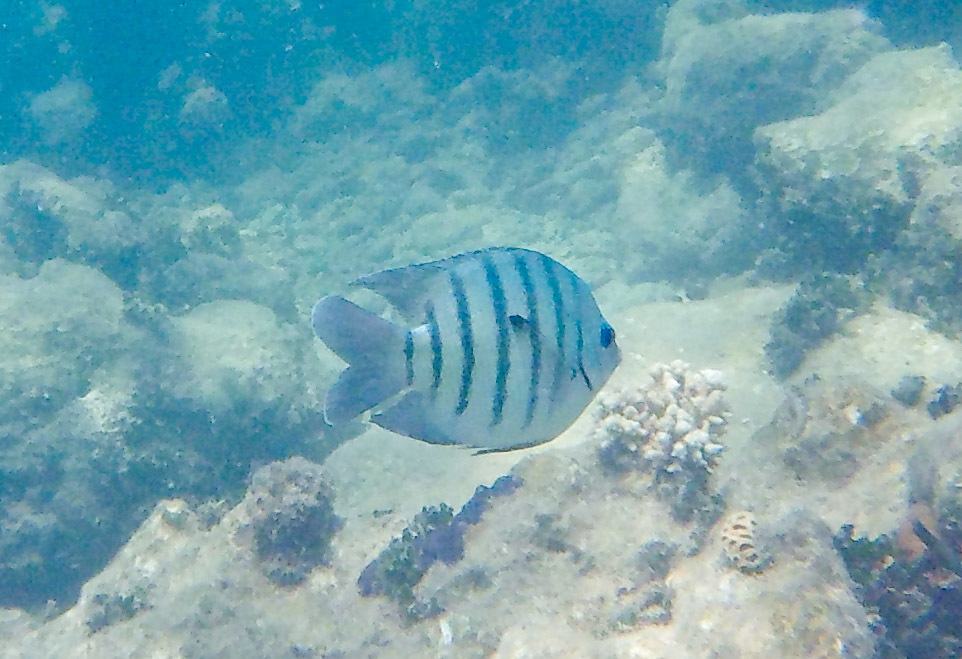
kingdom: Animalia
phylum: Chordata
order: Perciformes
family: Pomacentridae
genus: Abudefduf
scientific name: Abudefduf bengalensis
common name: Bengal sergeant
